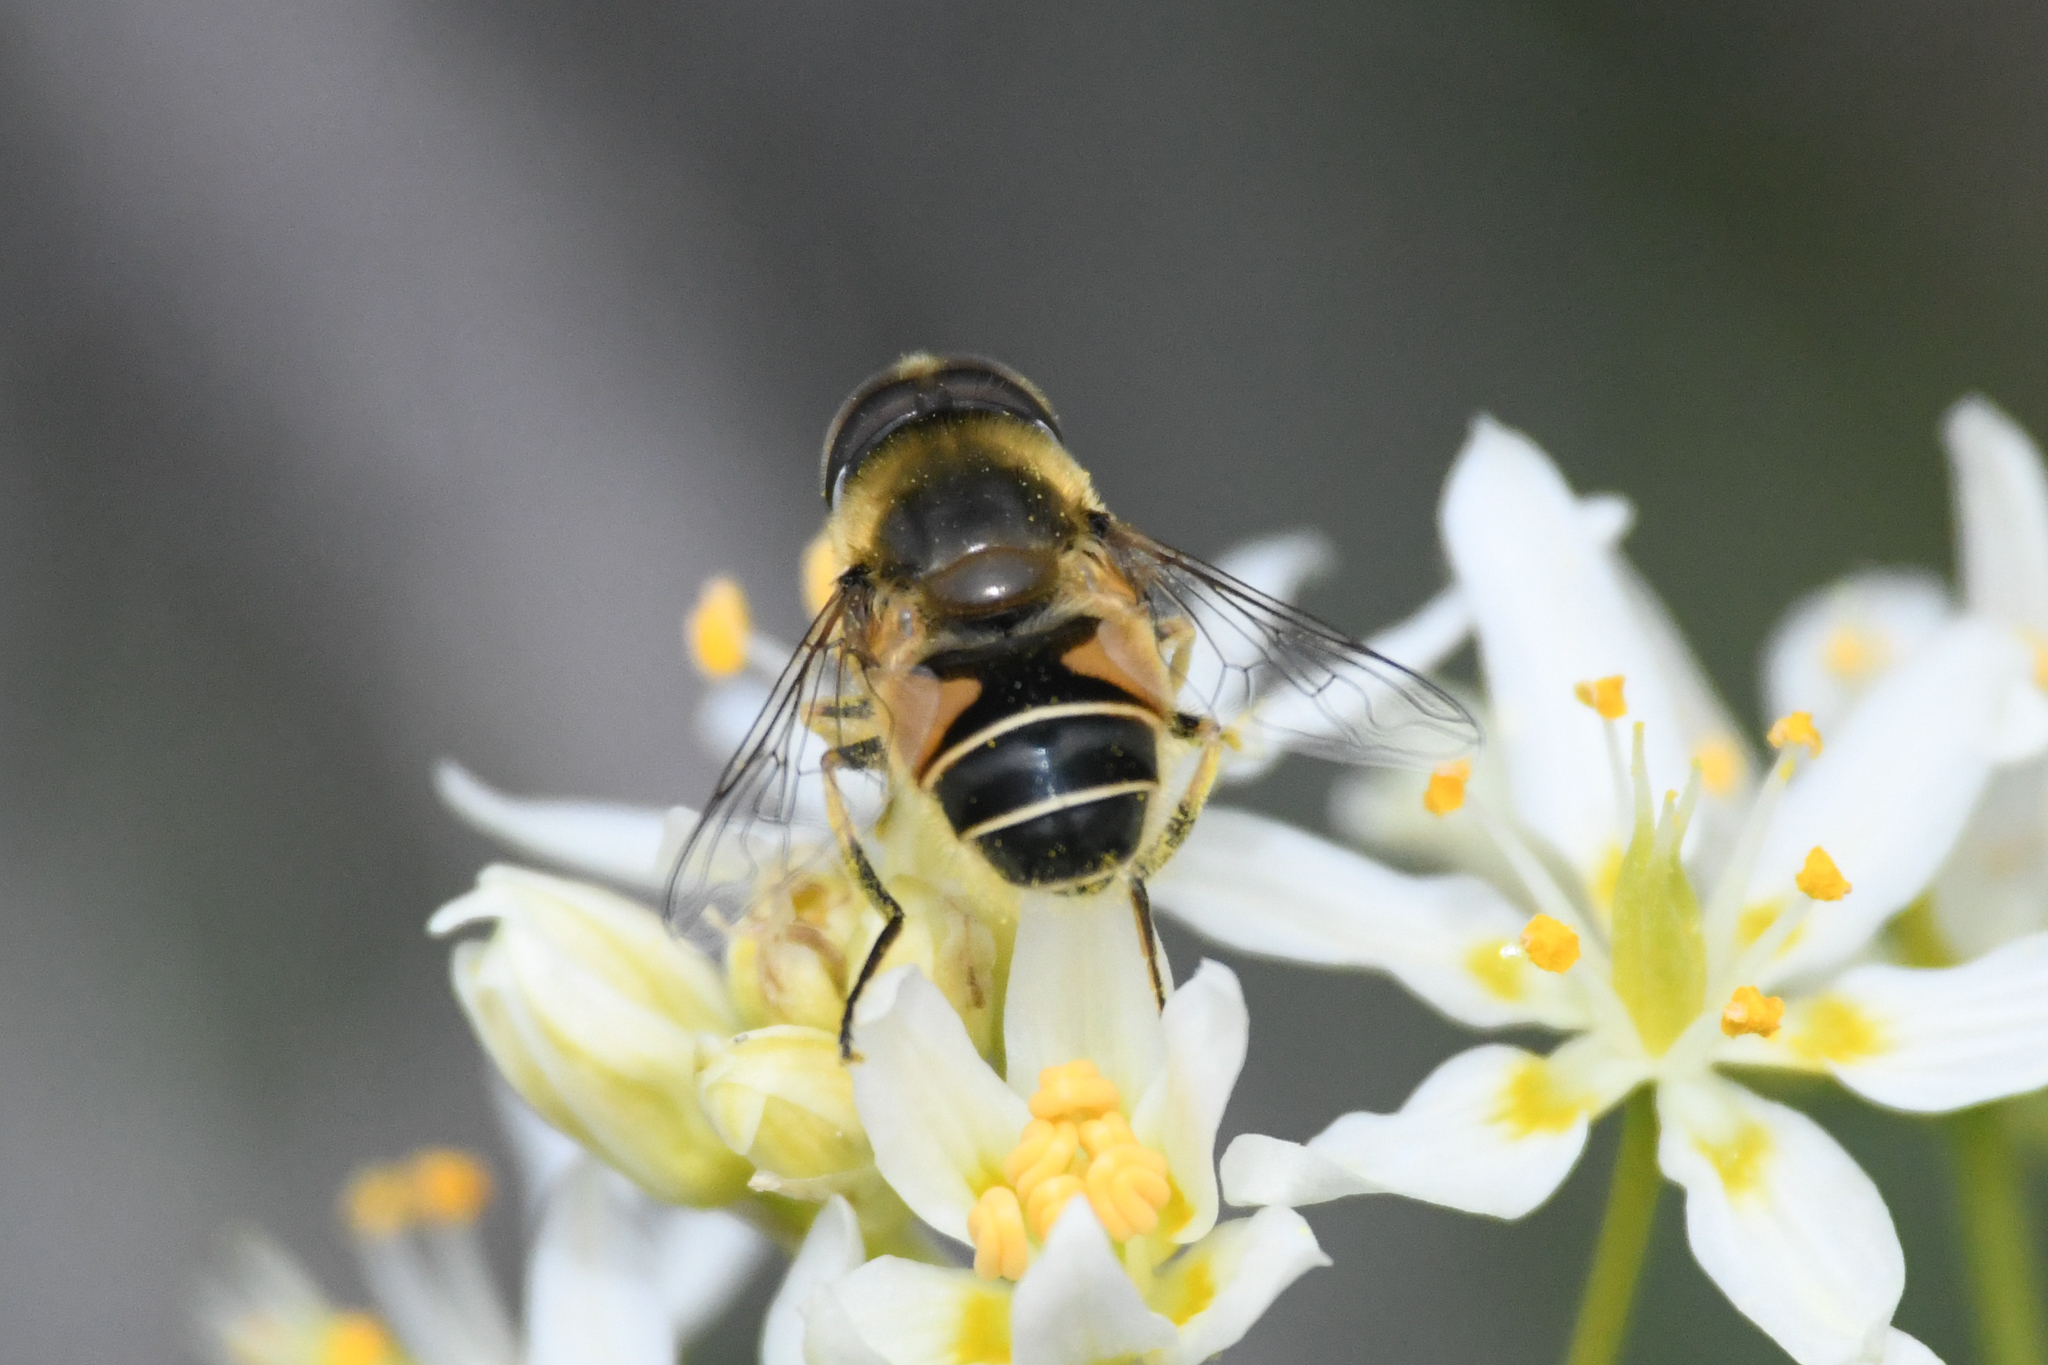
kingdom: Animalia
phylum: Arthropoda
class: Insecta
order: Diptera
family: Syrphidae
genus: Eristalis
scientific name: Eristalis hirta
